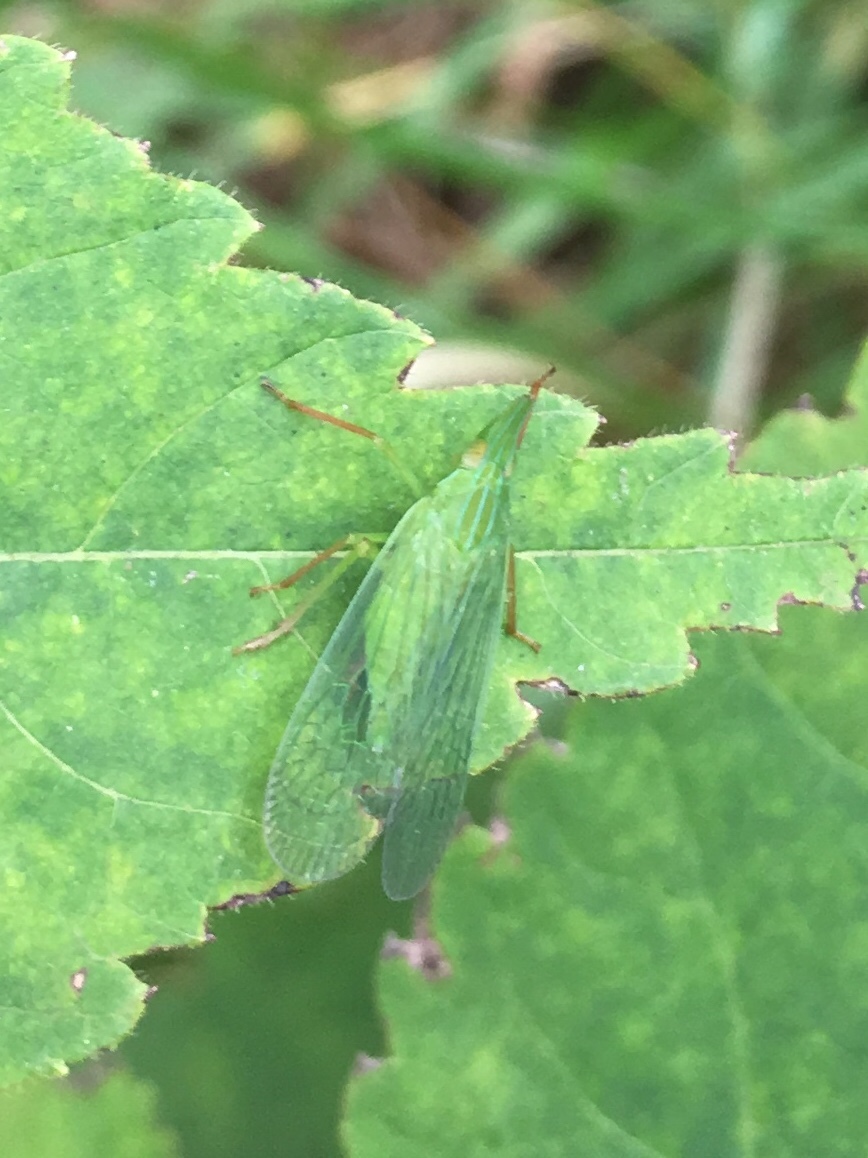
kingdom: Animalia
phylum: Arthropoda
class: Insecta
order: Hemiptera
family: Dictyopharidae
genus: Rhynchomitra
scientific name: Rhynchomitra microrhina
